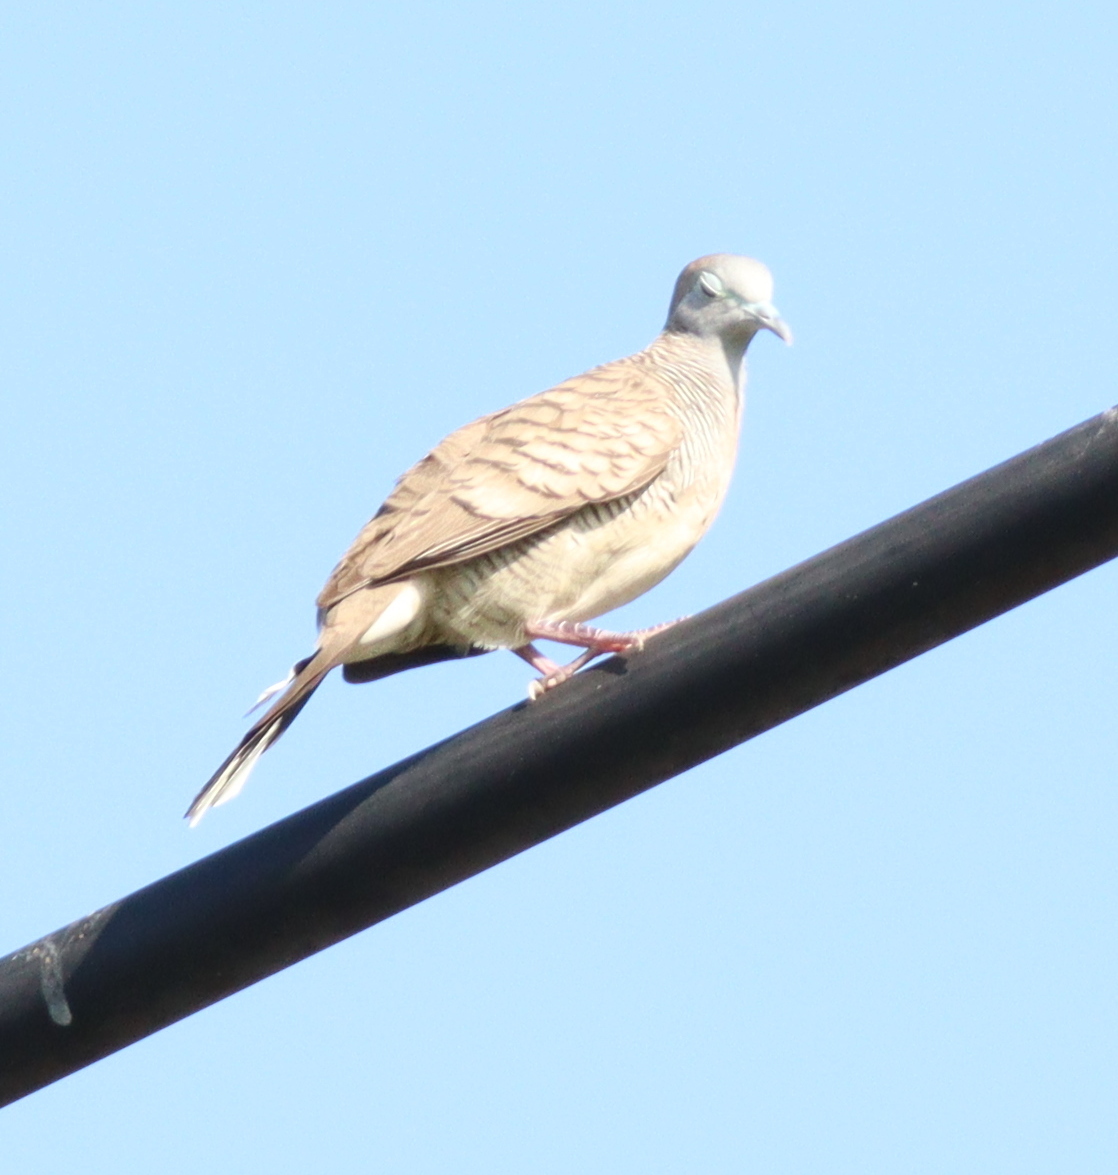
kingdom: Animalia
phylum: Chordata
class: Aves
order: Columbiformes
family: Columbidae
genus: Geopelia
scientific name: Geopelia striata
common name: Zebra dove
